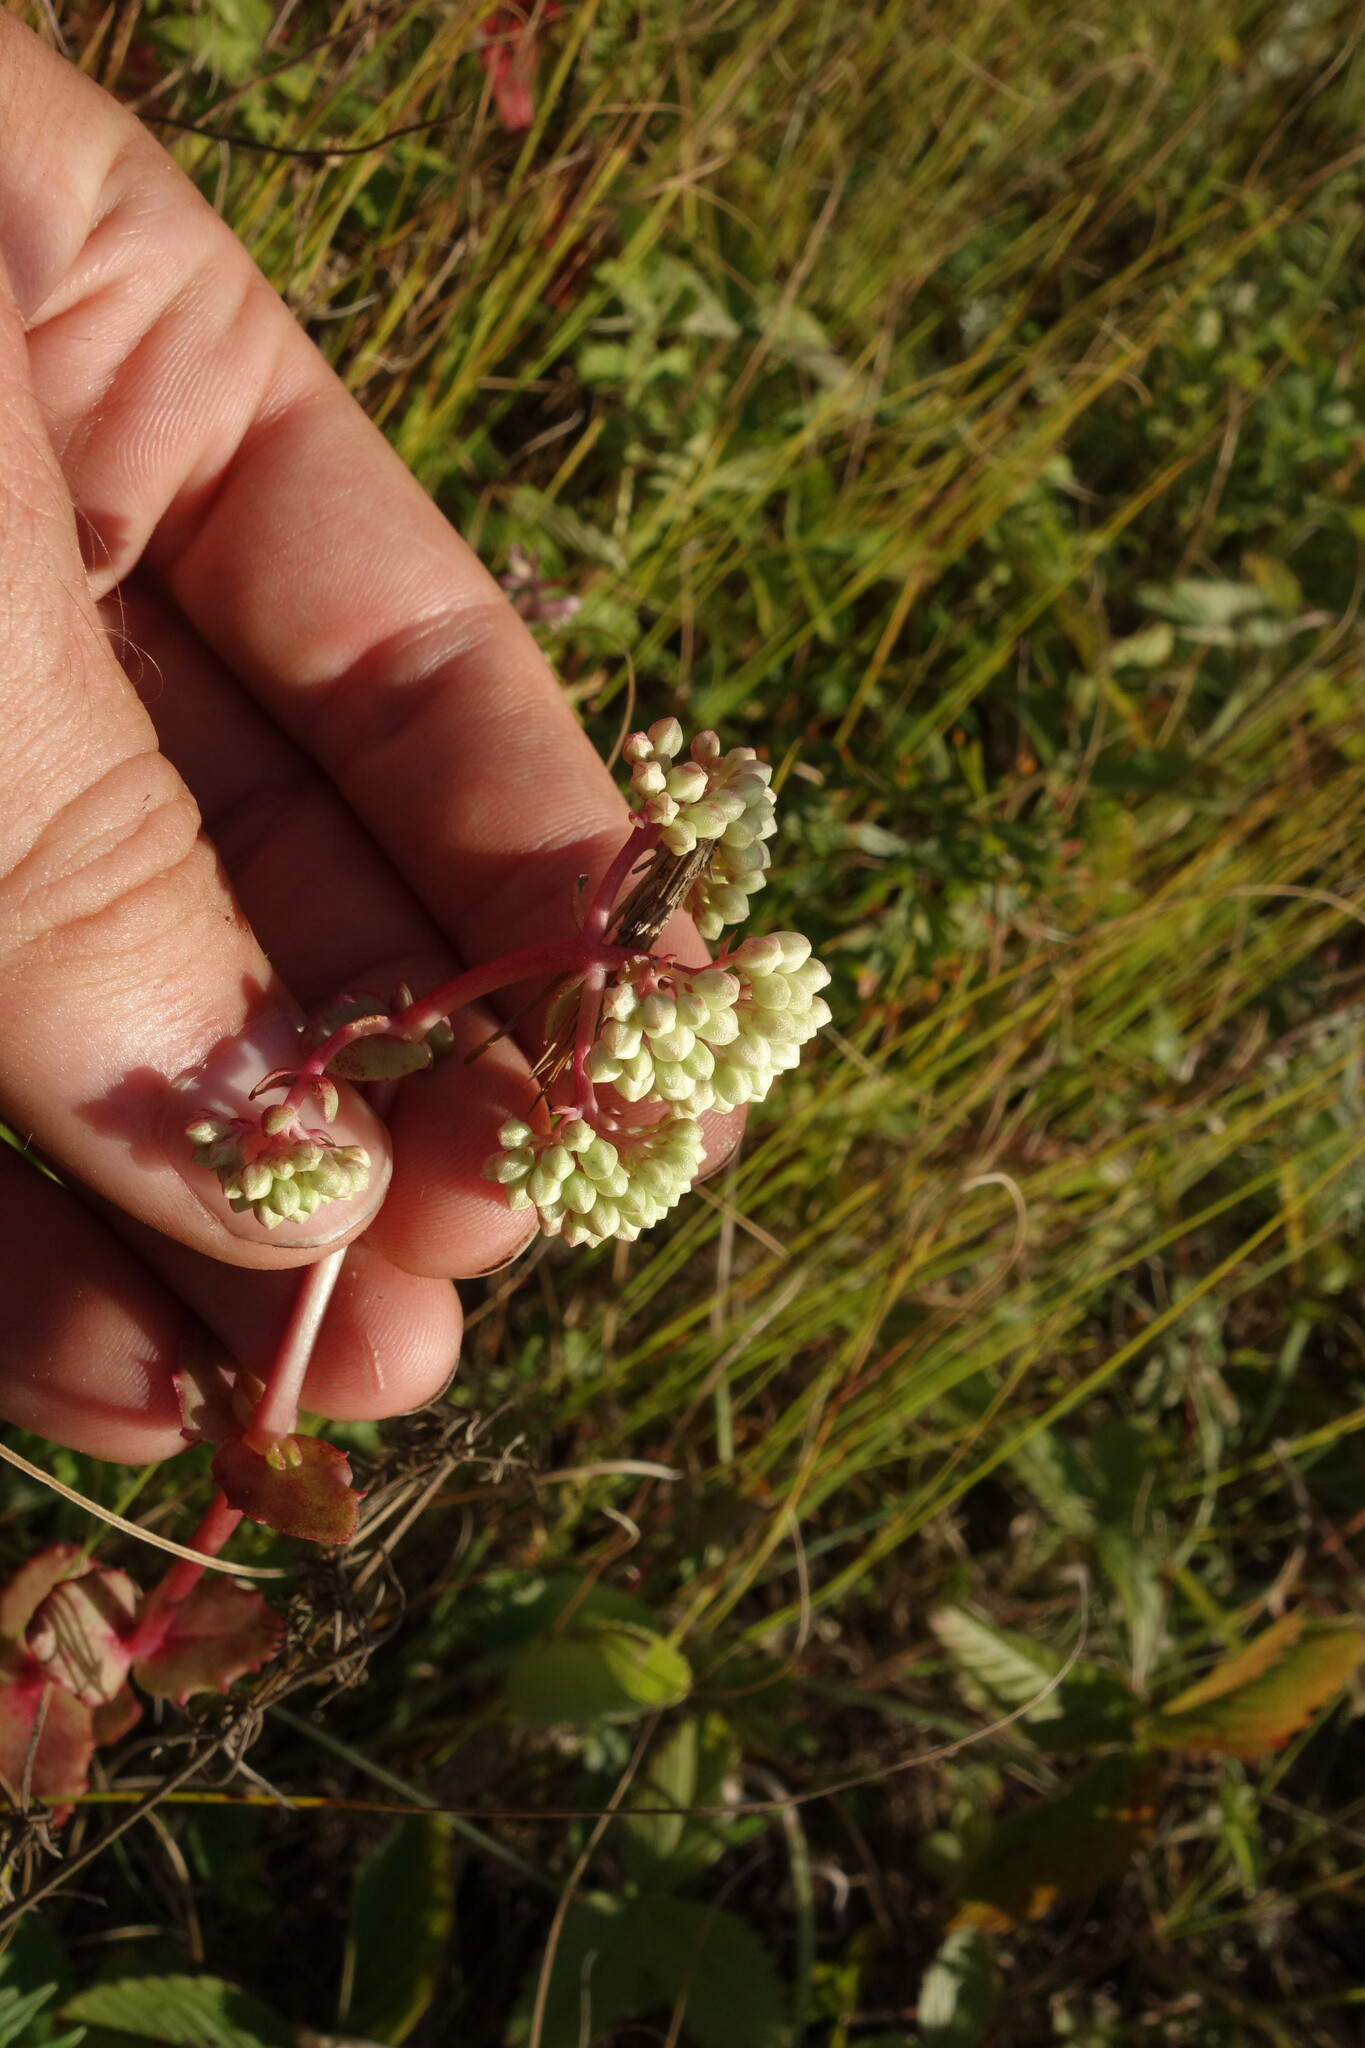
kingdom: Plantae
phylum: Tracheophyta
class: Magnoliopsida
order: Saxifragales
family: Crassulaceae
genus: Hylotelephium
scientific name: Hylotelephium maximum
